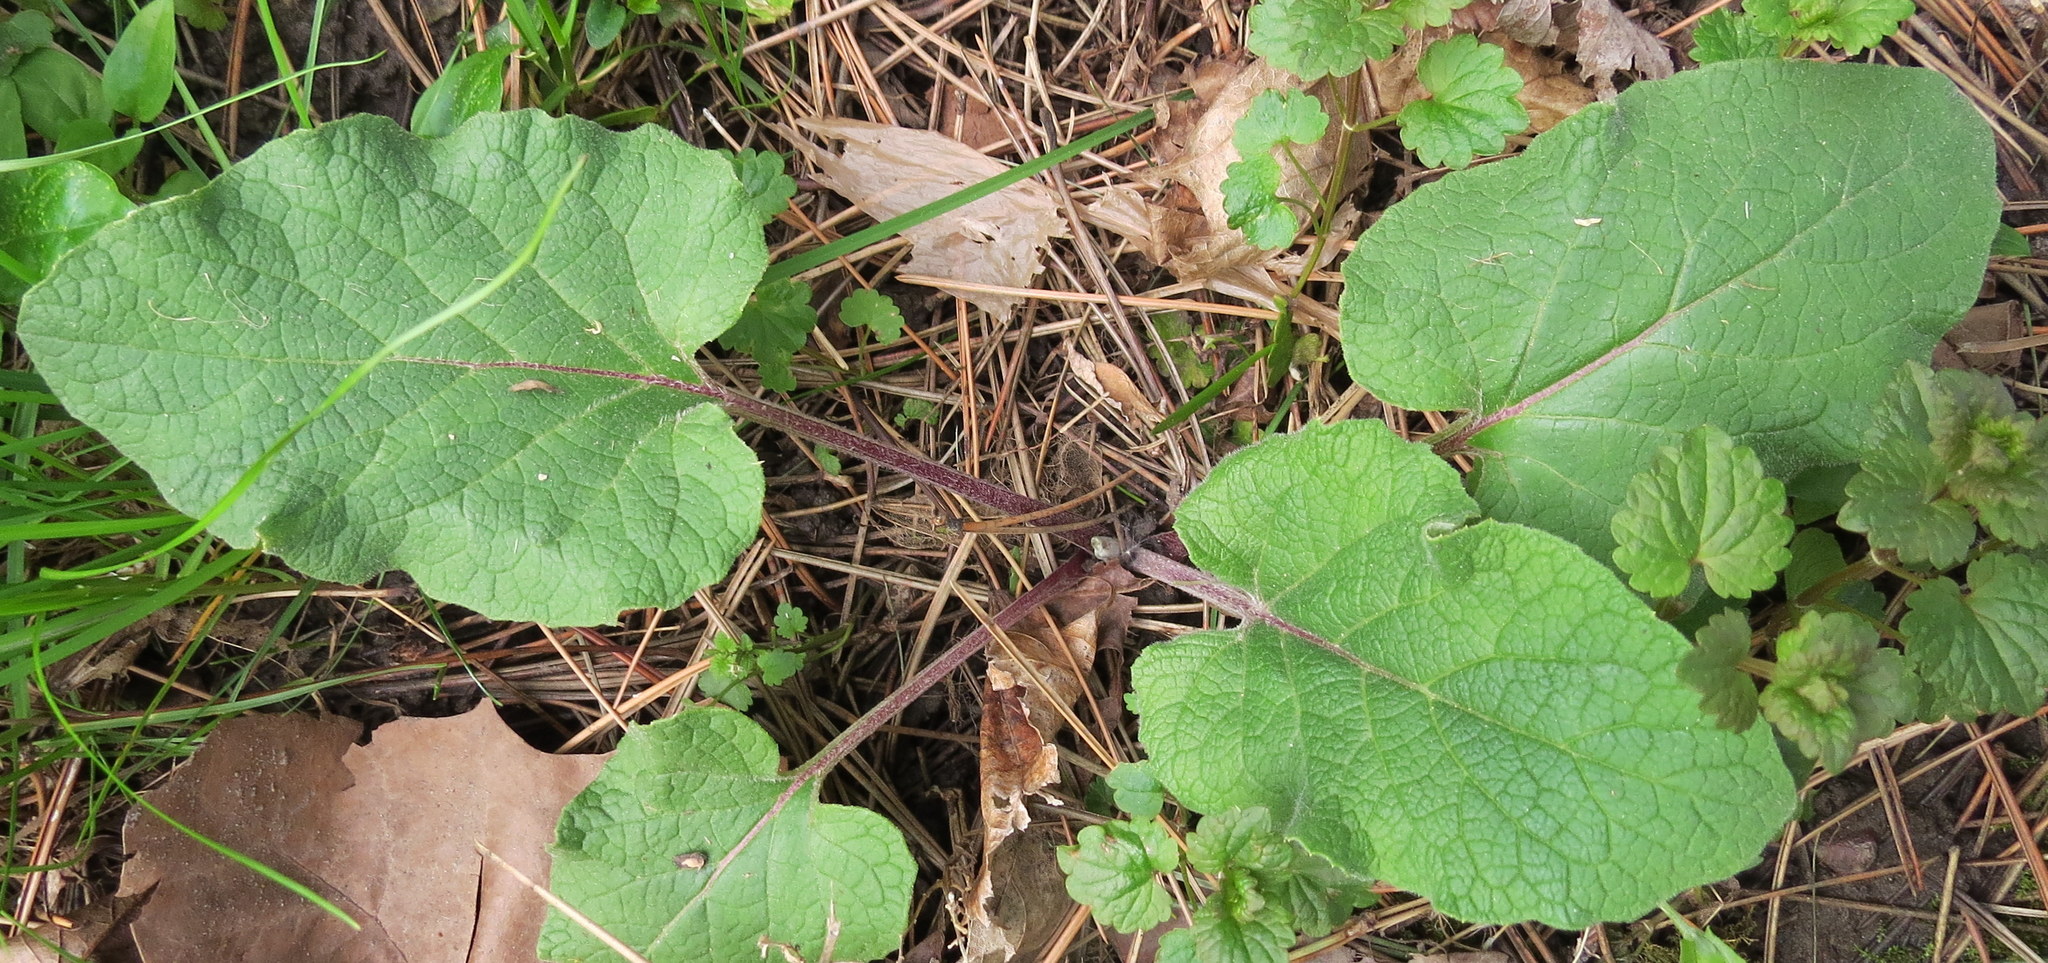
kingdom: Plantae
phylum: Tracheophyta
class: Magnoliopsida
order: Asterales
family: Asteraceae
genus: Arctium
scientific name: Arctium minus
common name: Lesser burdock
